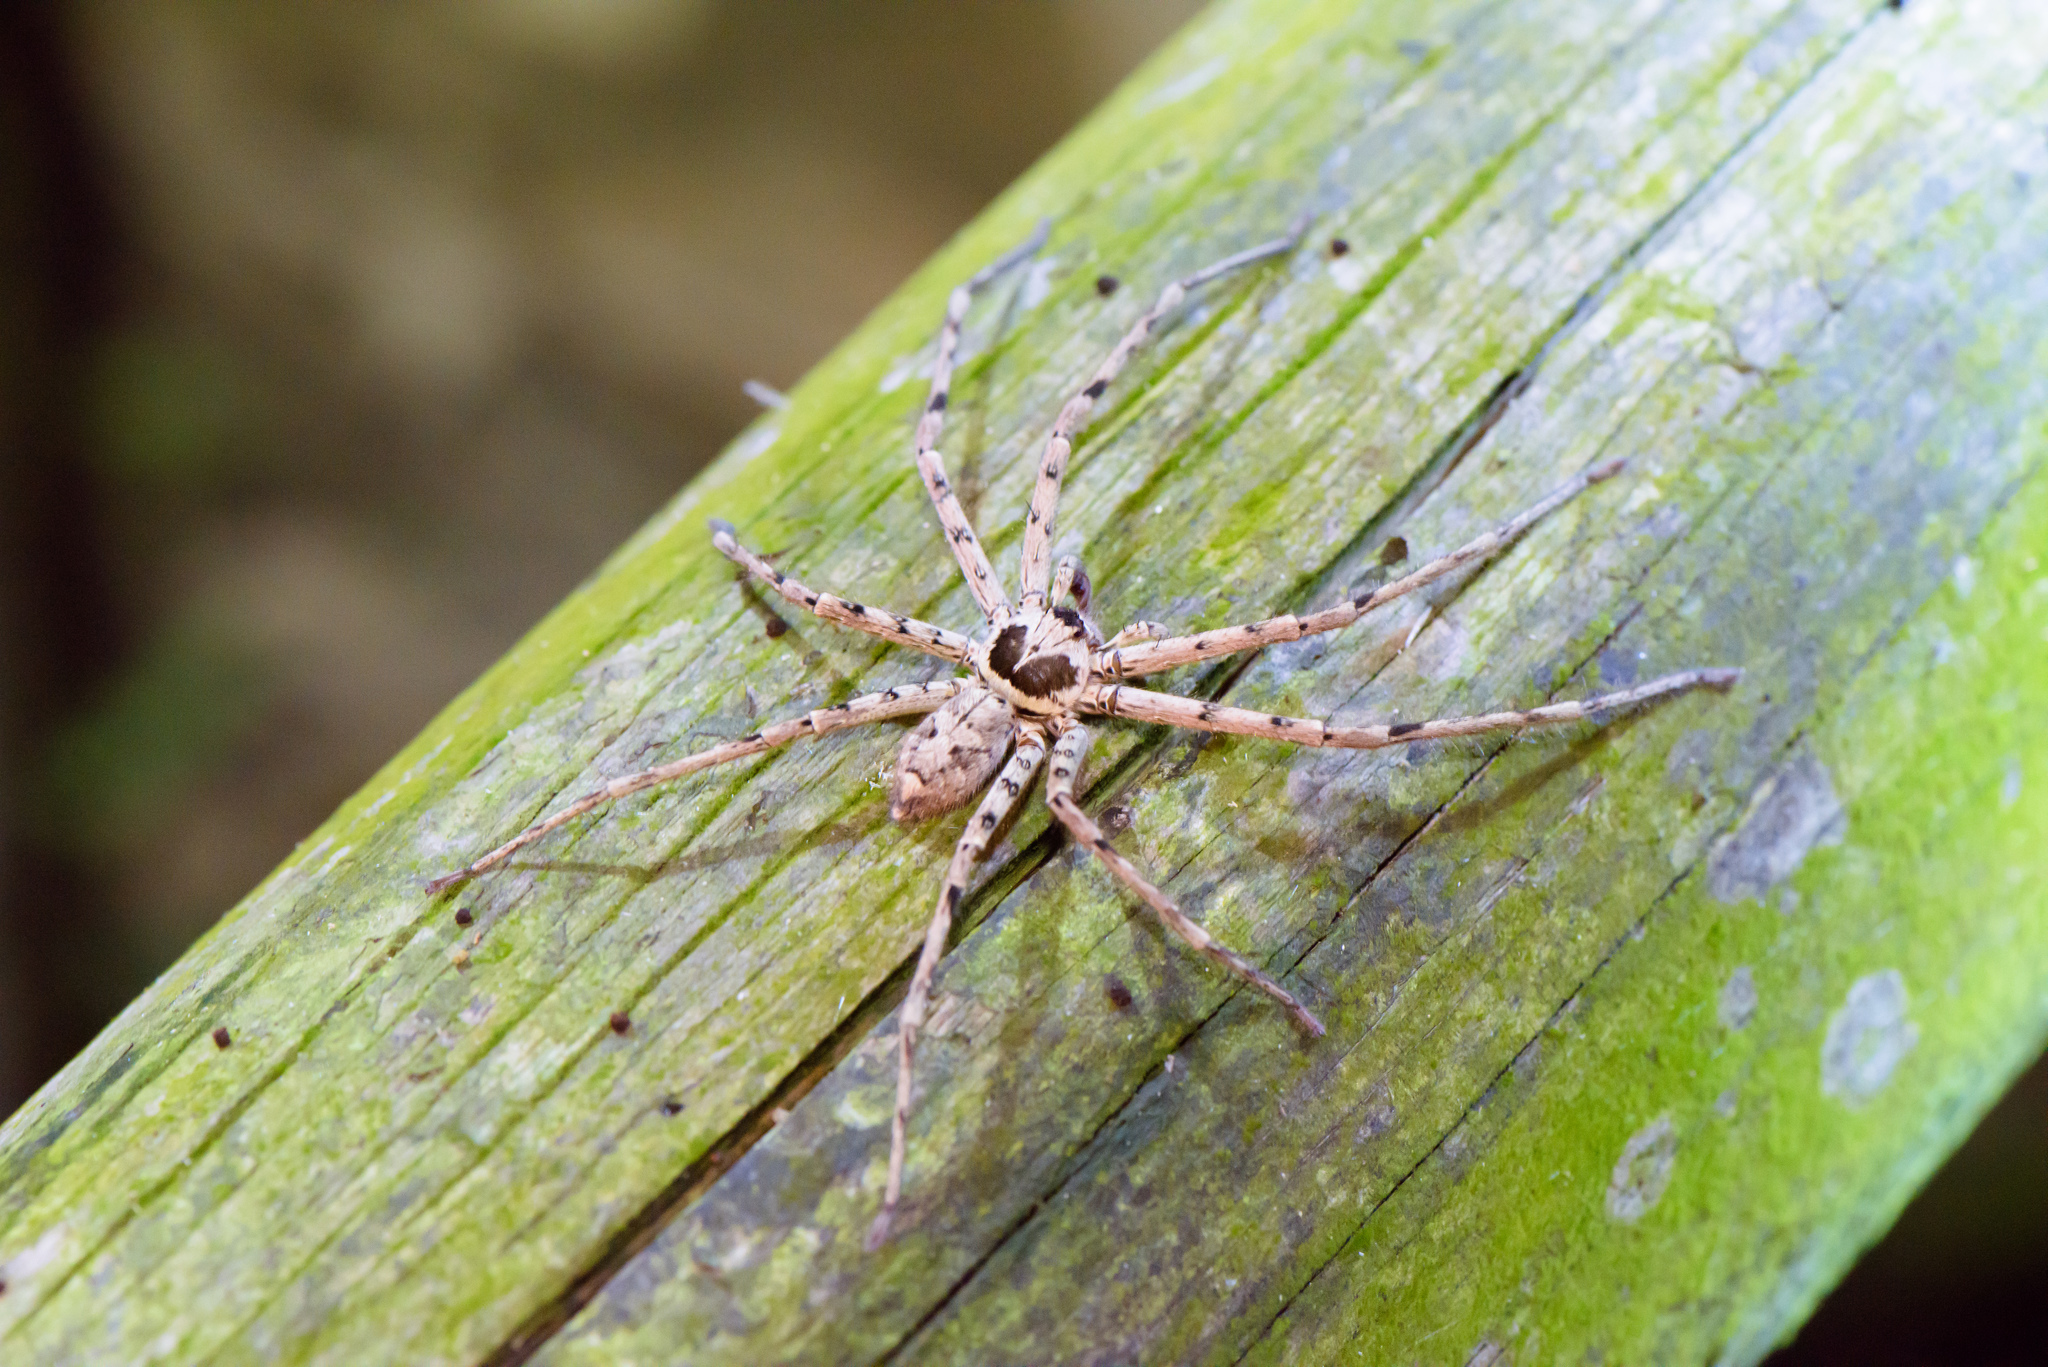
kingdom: Animalia
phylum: Arthropoda
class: Arachnida
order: Araneae
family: Sparassidae
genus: Heteropoda
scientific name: Heteropoda venatoria
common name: Huntsman spider
